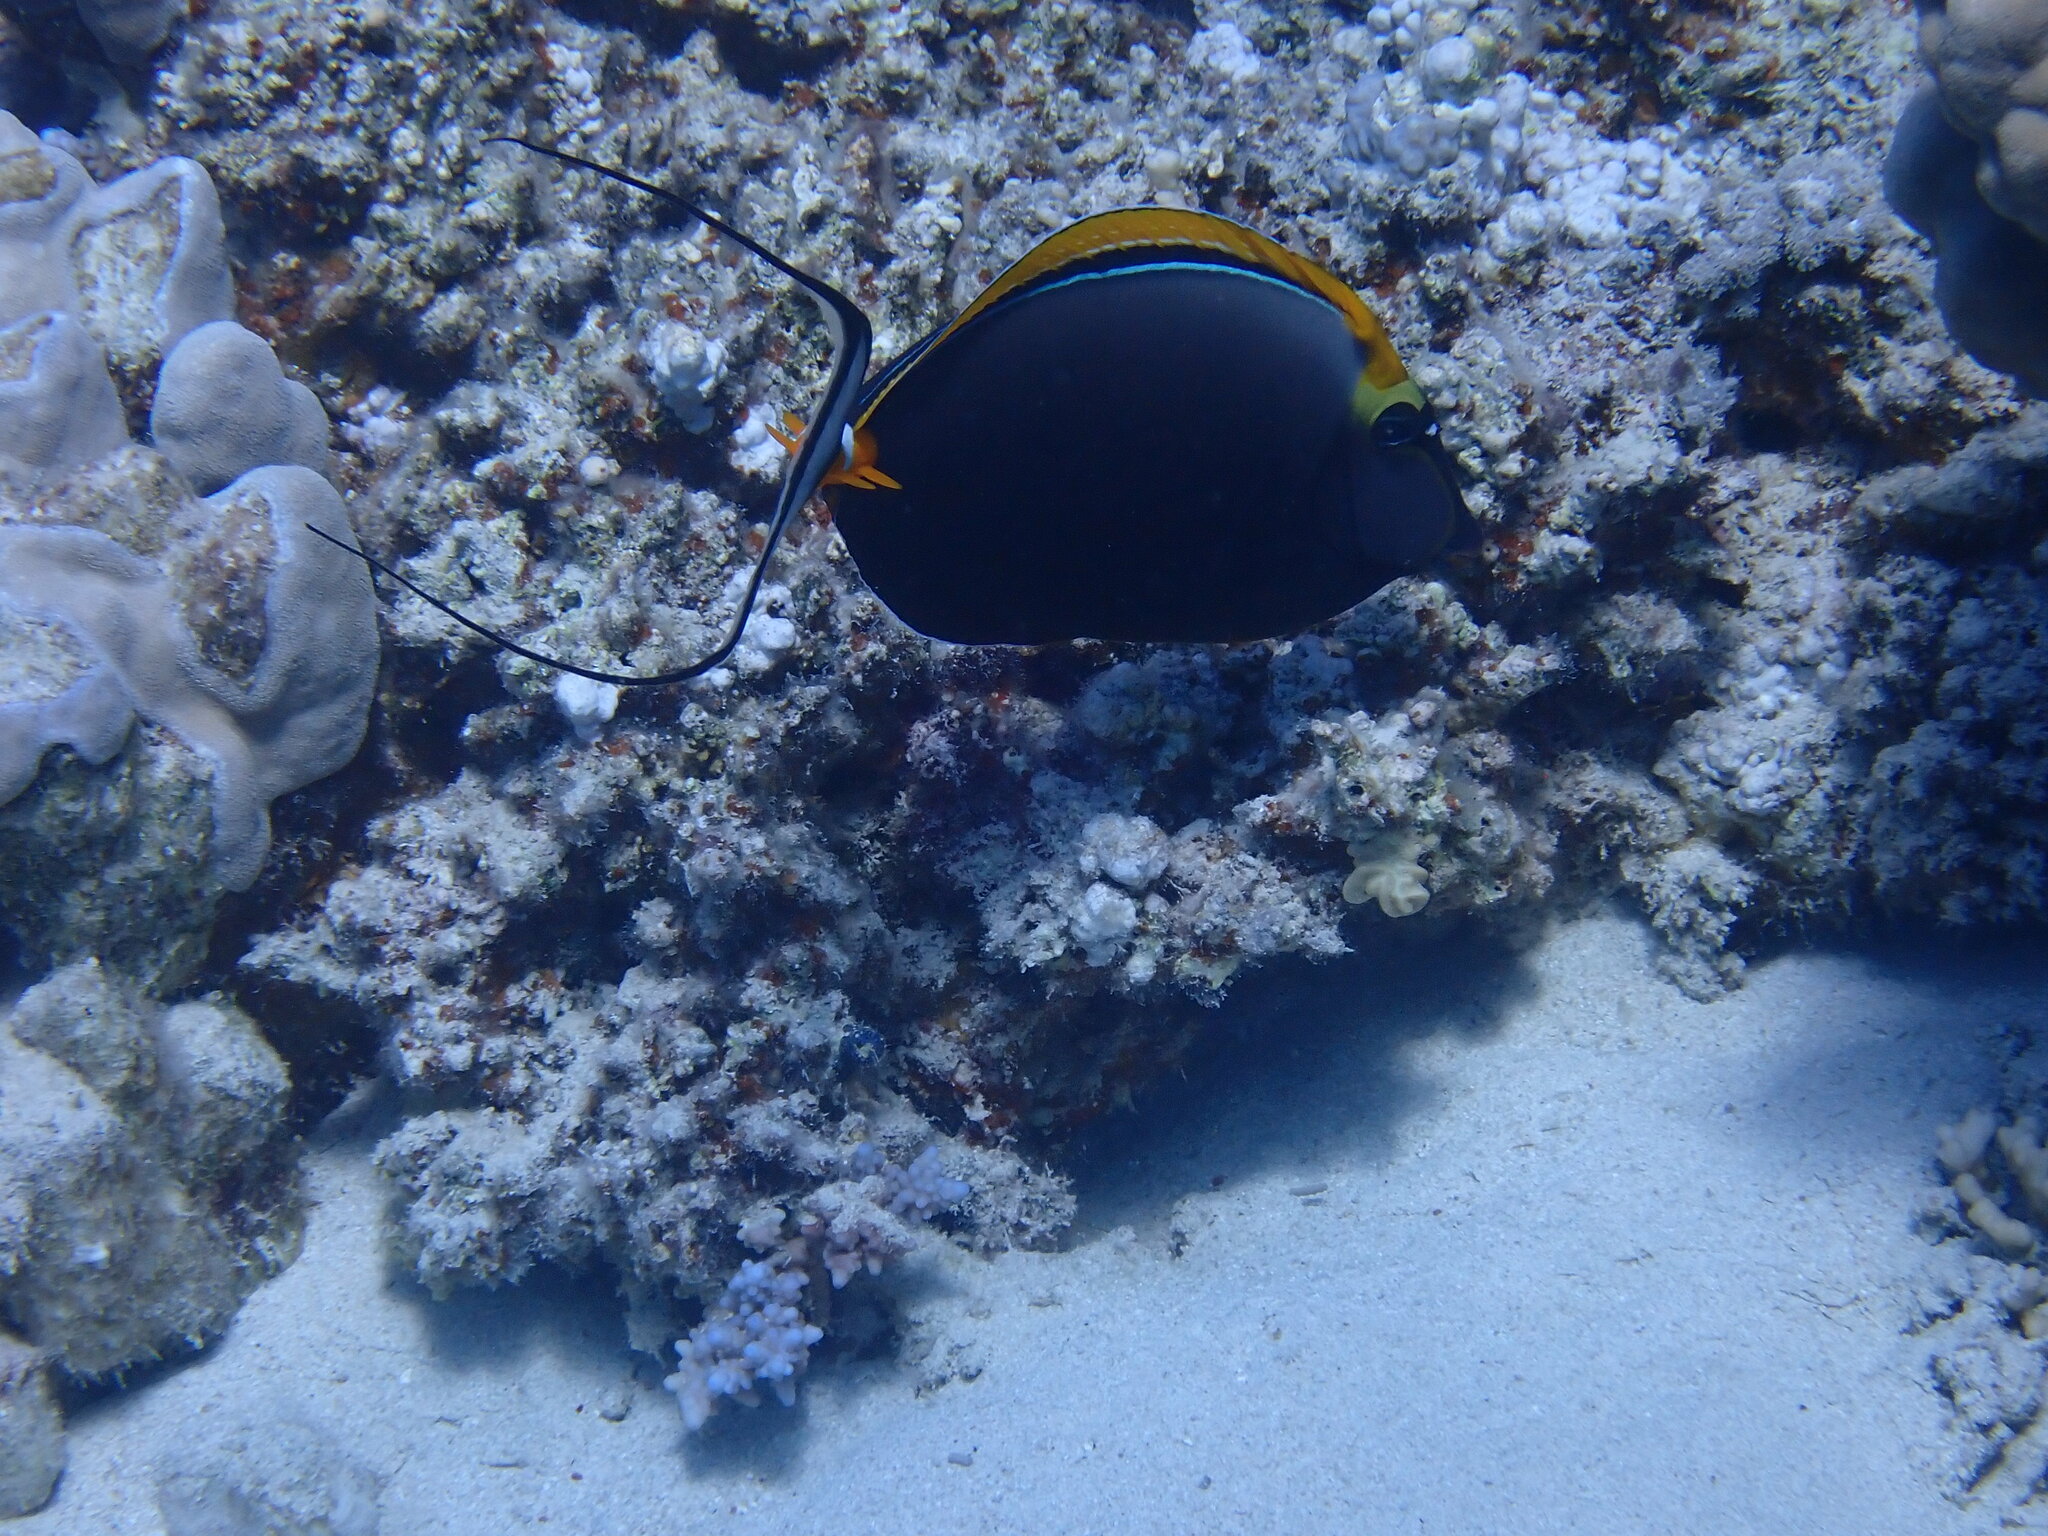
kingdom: Animalia
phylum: Chordata
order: Perciformes
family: Acanthuridae
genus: Naso
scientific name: Naso elegans
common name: Orangespine unicornfish
